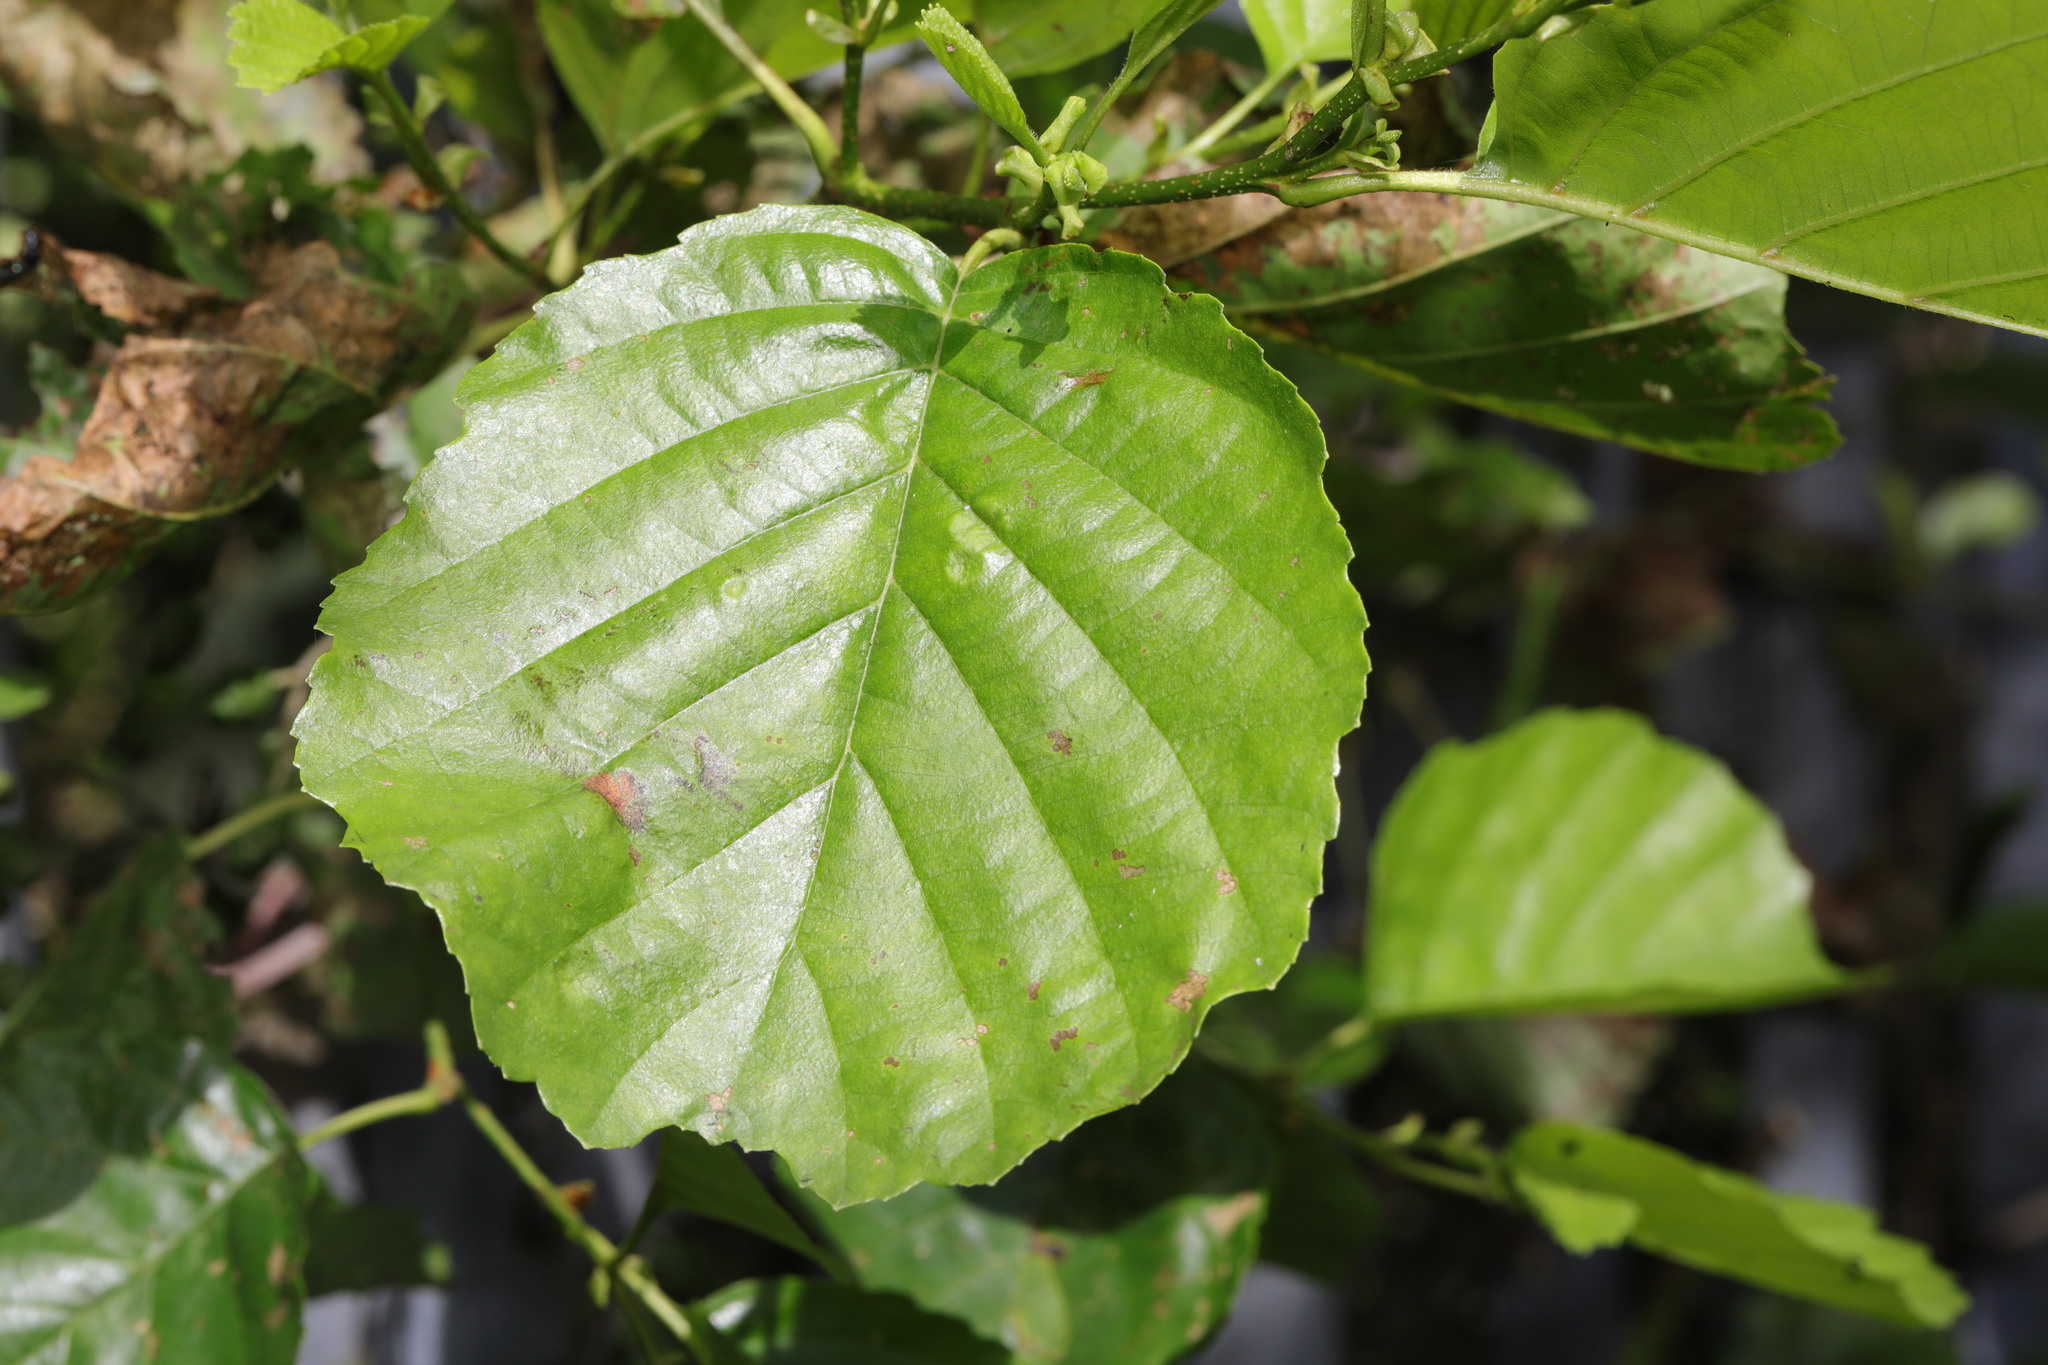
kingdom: Plantae
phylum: Tracheophyta
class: Magnoliopsida
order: Fagales
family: Betulaceae
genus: Alnus
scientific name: Alnus glutinosa
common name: Black alder
